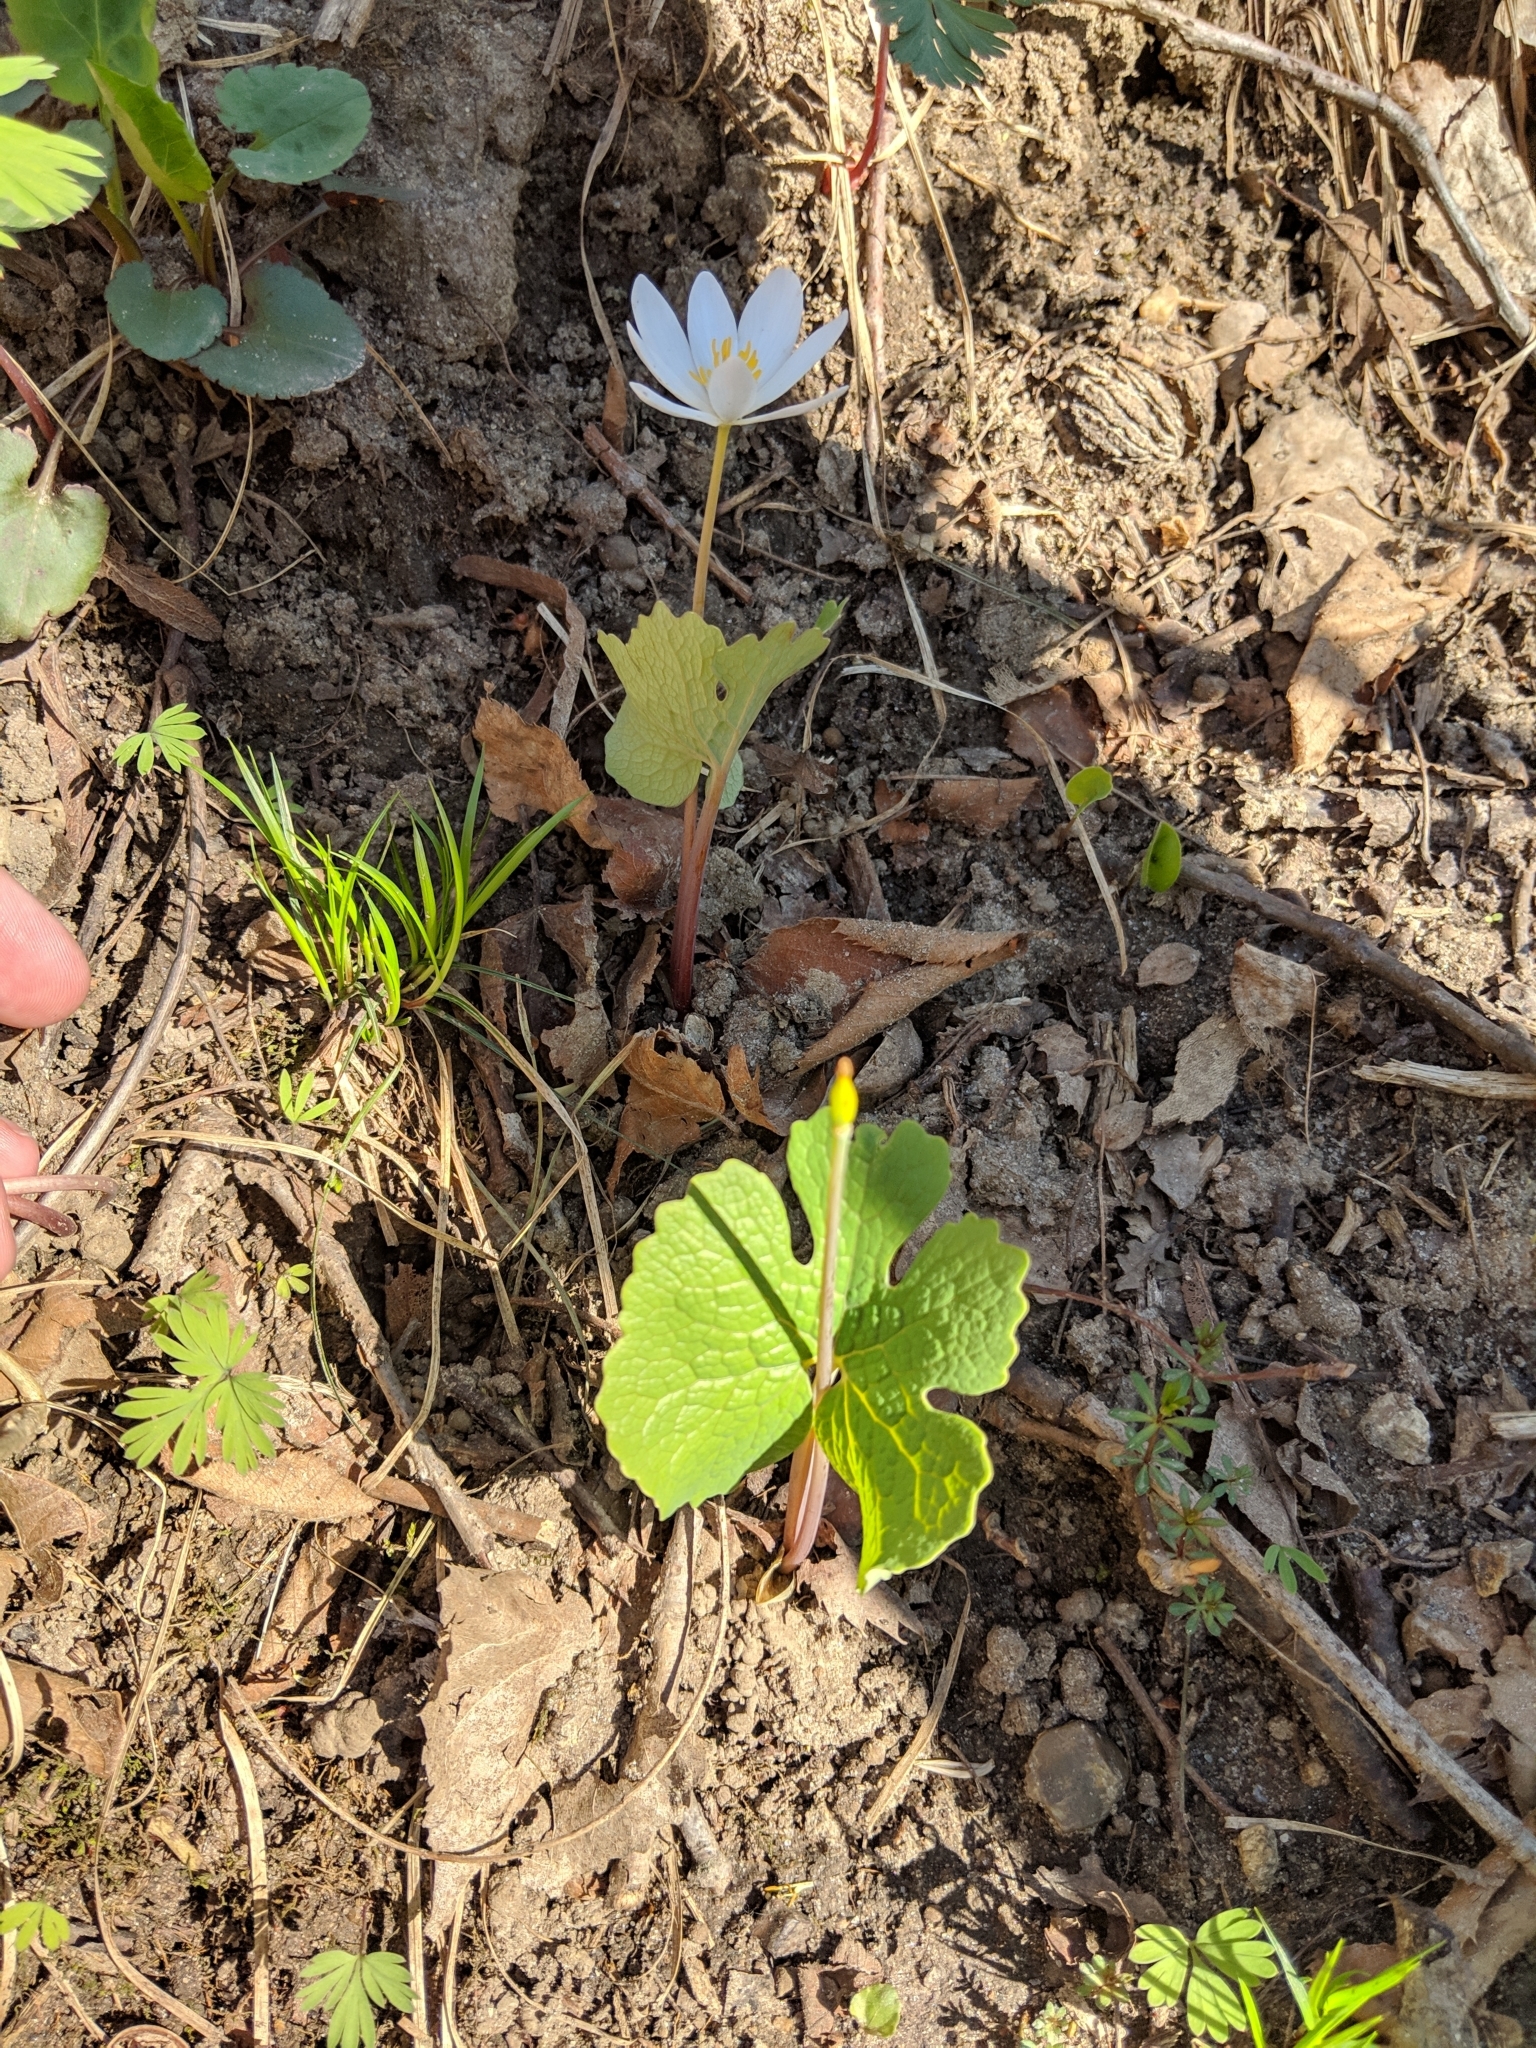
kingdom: Plantae
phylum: Tracheophyta
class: Magnoliopsida
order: Ranunculales
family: Papaveraceae
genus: Sanguinaria
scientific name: Sanguinaria canadensis
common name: Bloodroot
